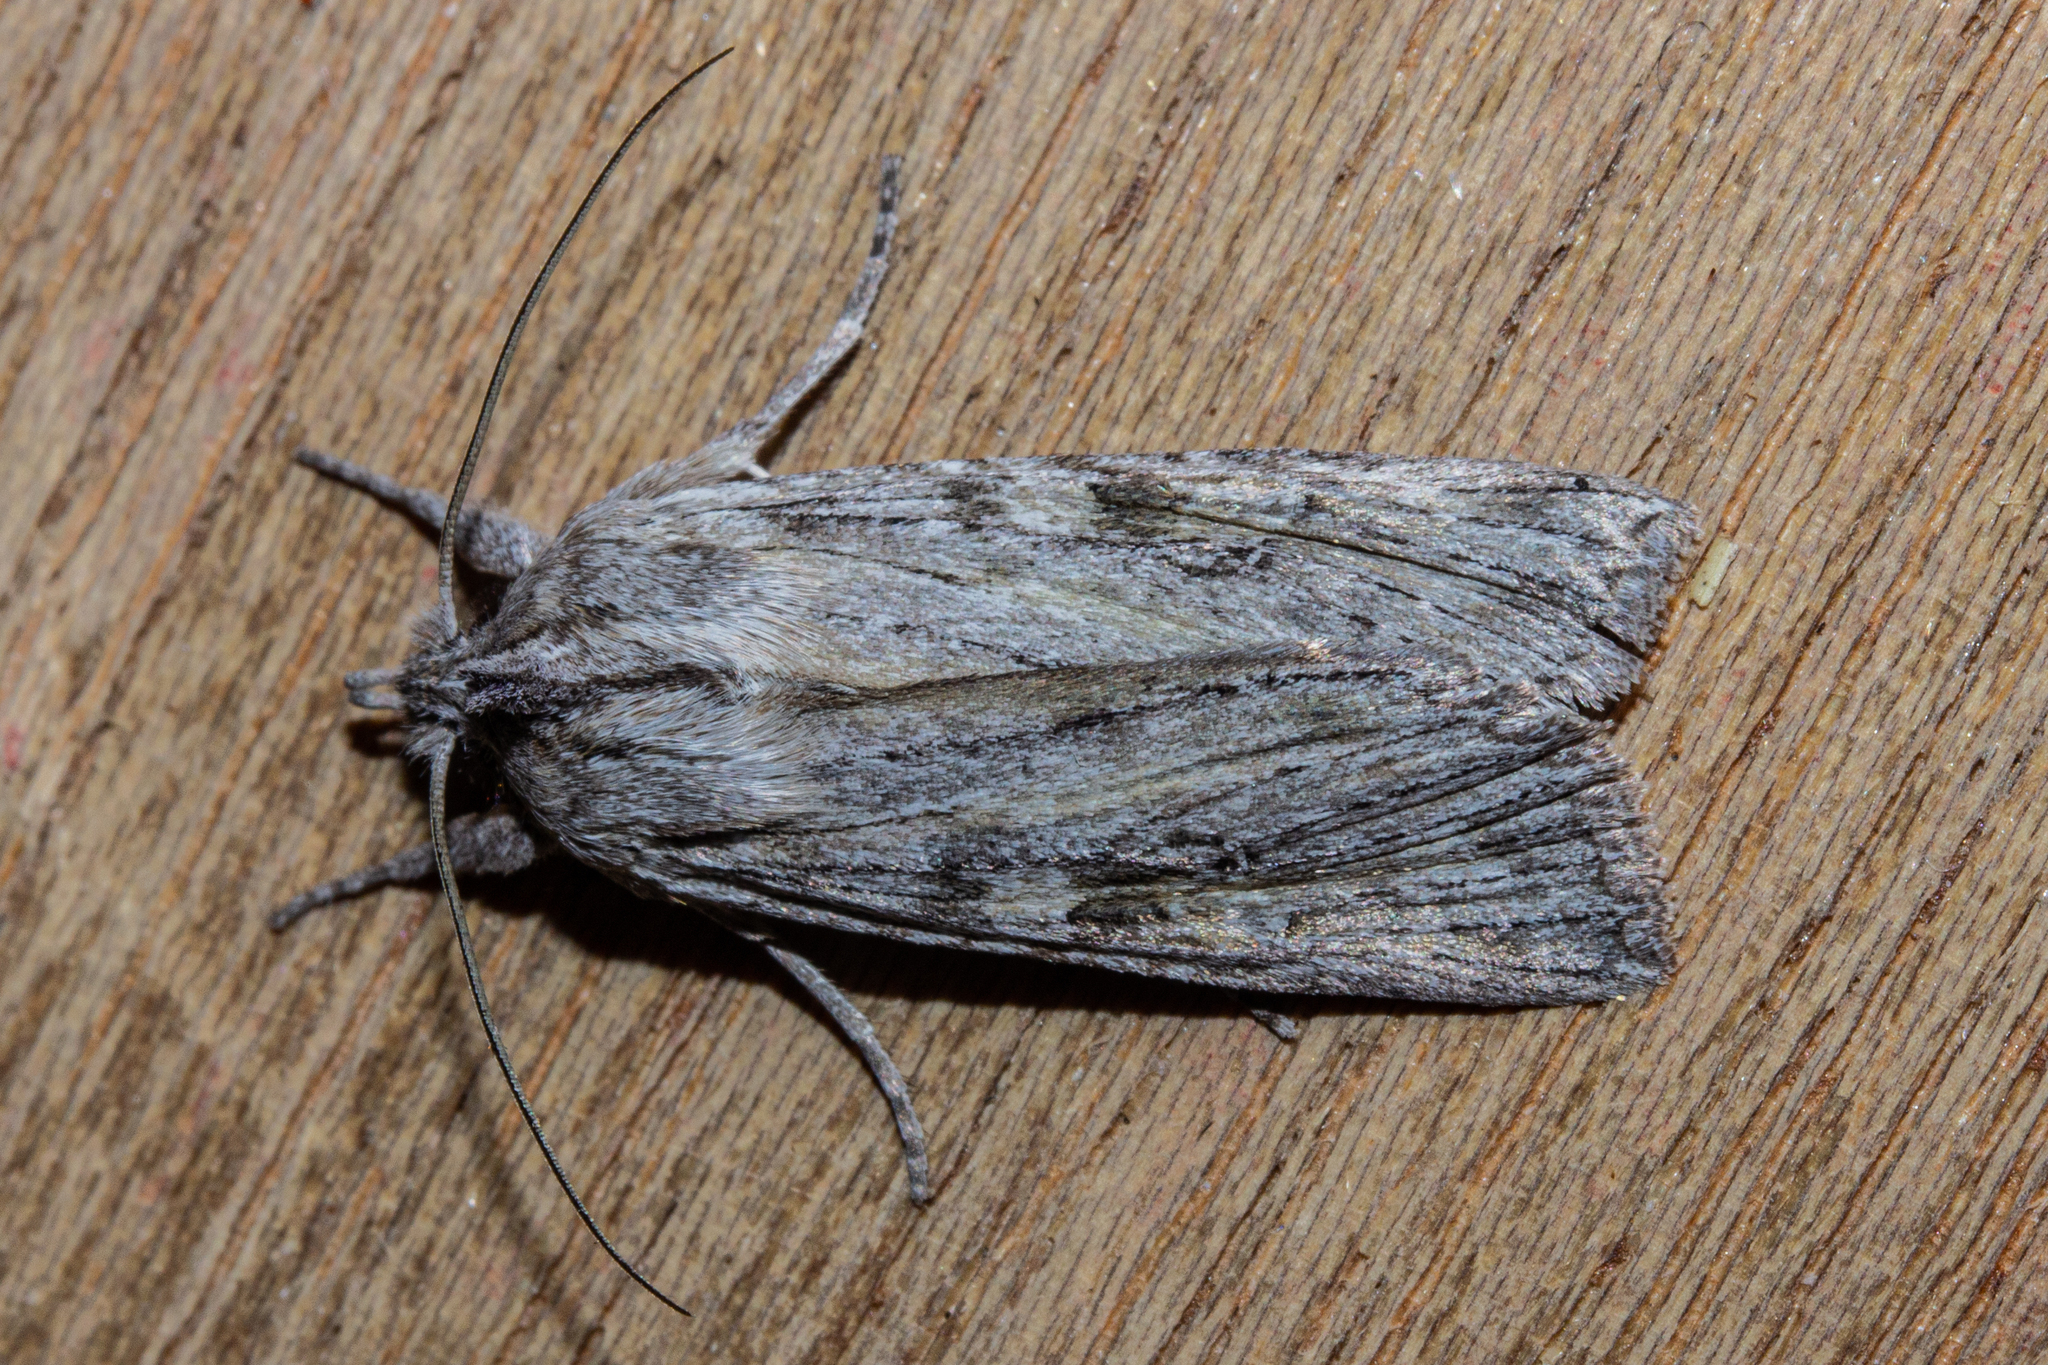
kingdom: Animalia
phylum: Arthropoda
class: Insecta
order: Lepidoptera
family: Noctuidae
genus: Physetica
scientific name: Physetica phricias
